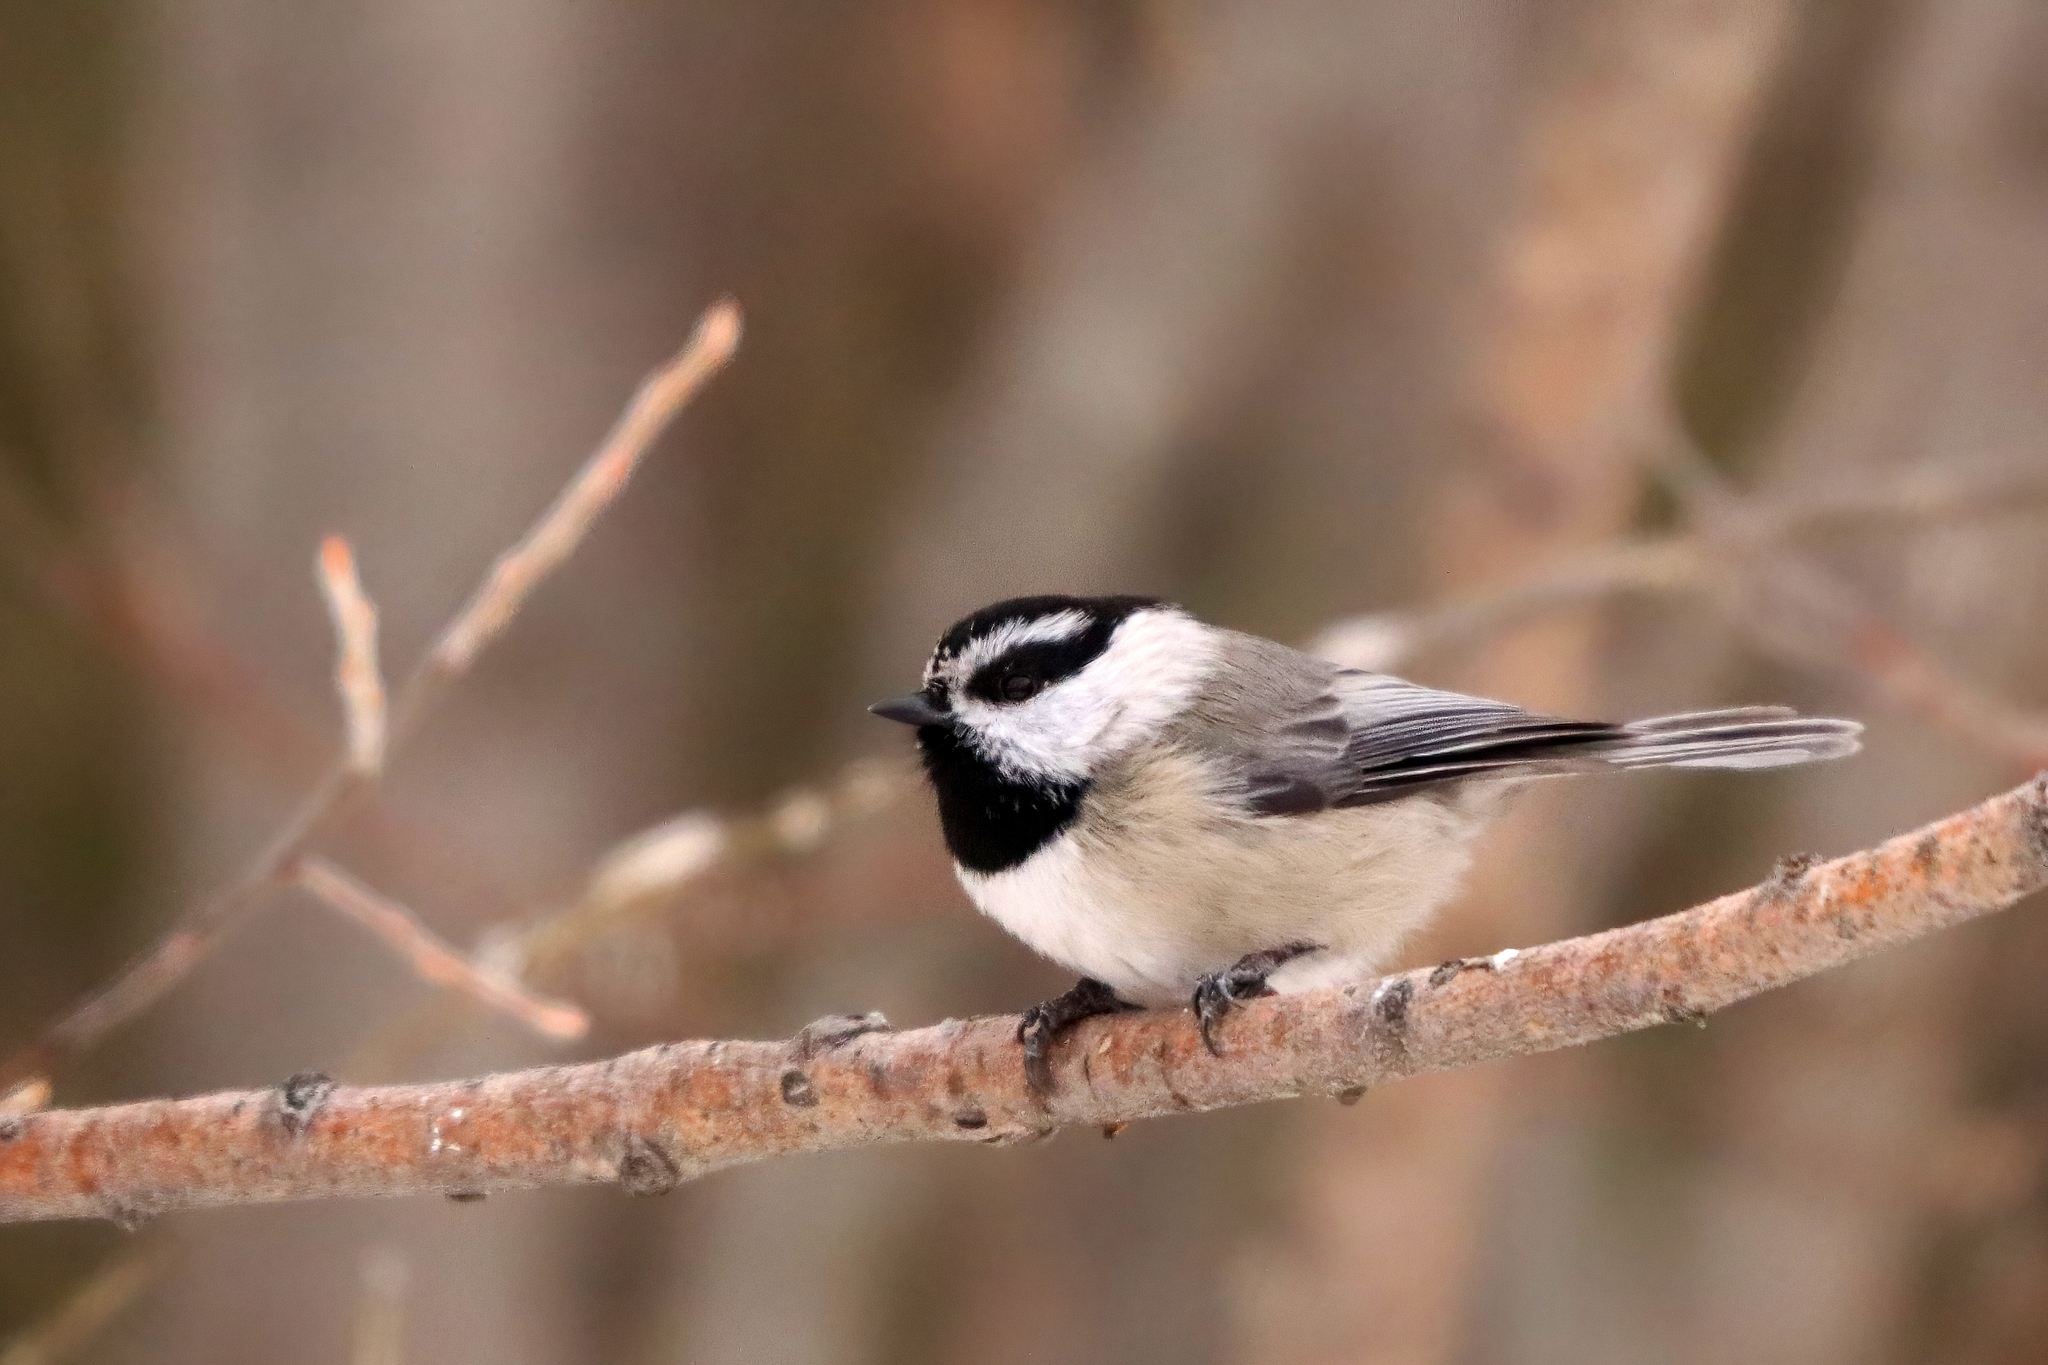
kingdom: Animalia
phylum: Chordata
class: Aves
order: Passeriformes
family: Paridae
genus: Poecile
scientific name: Poecile gambeli
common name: Mountain chickadee
